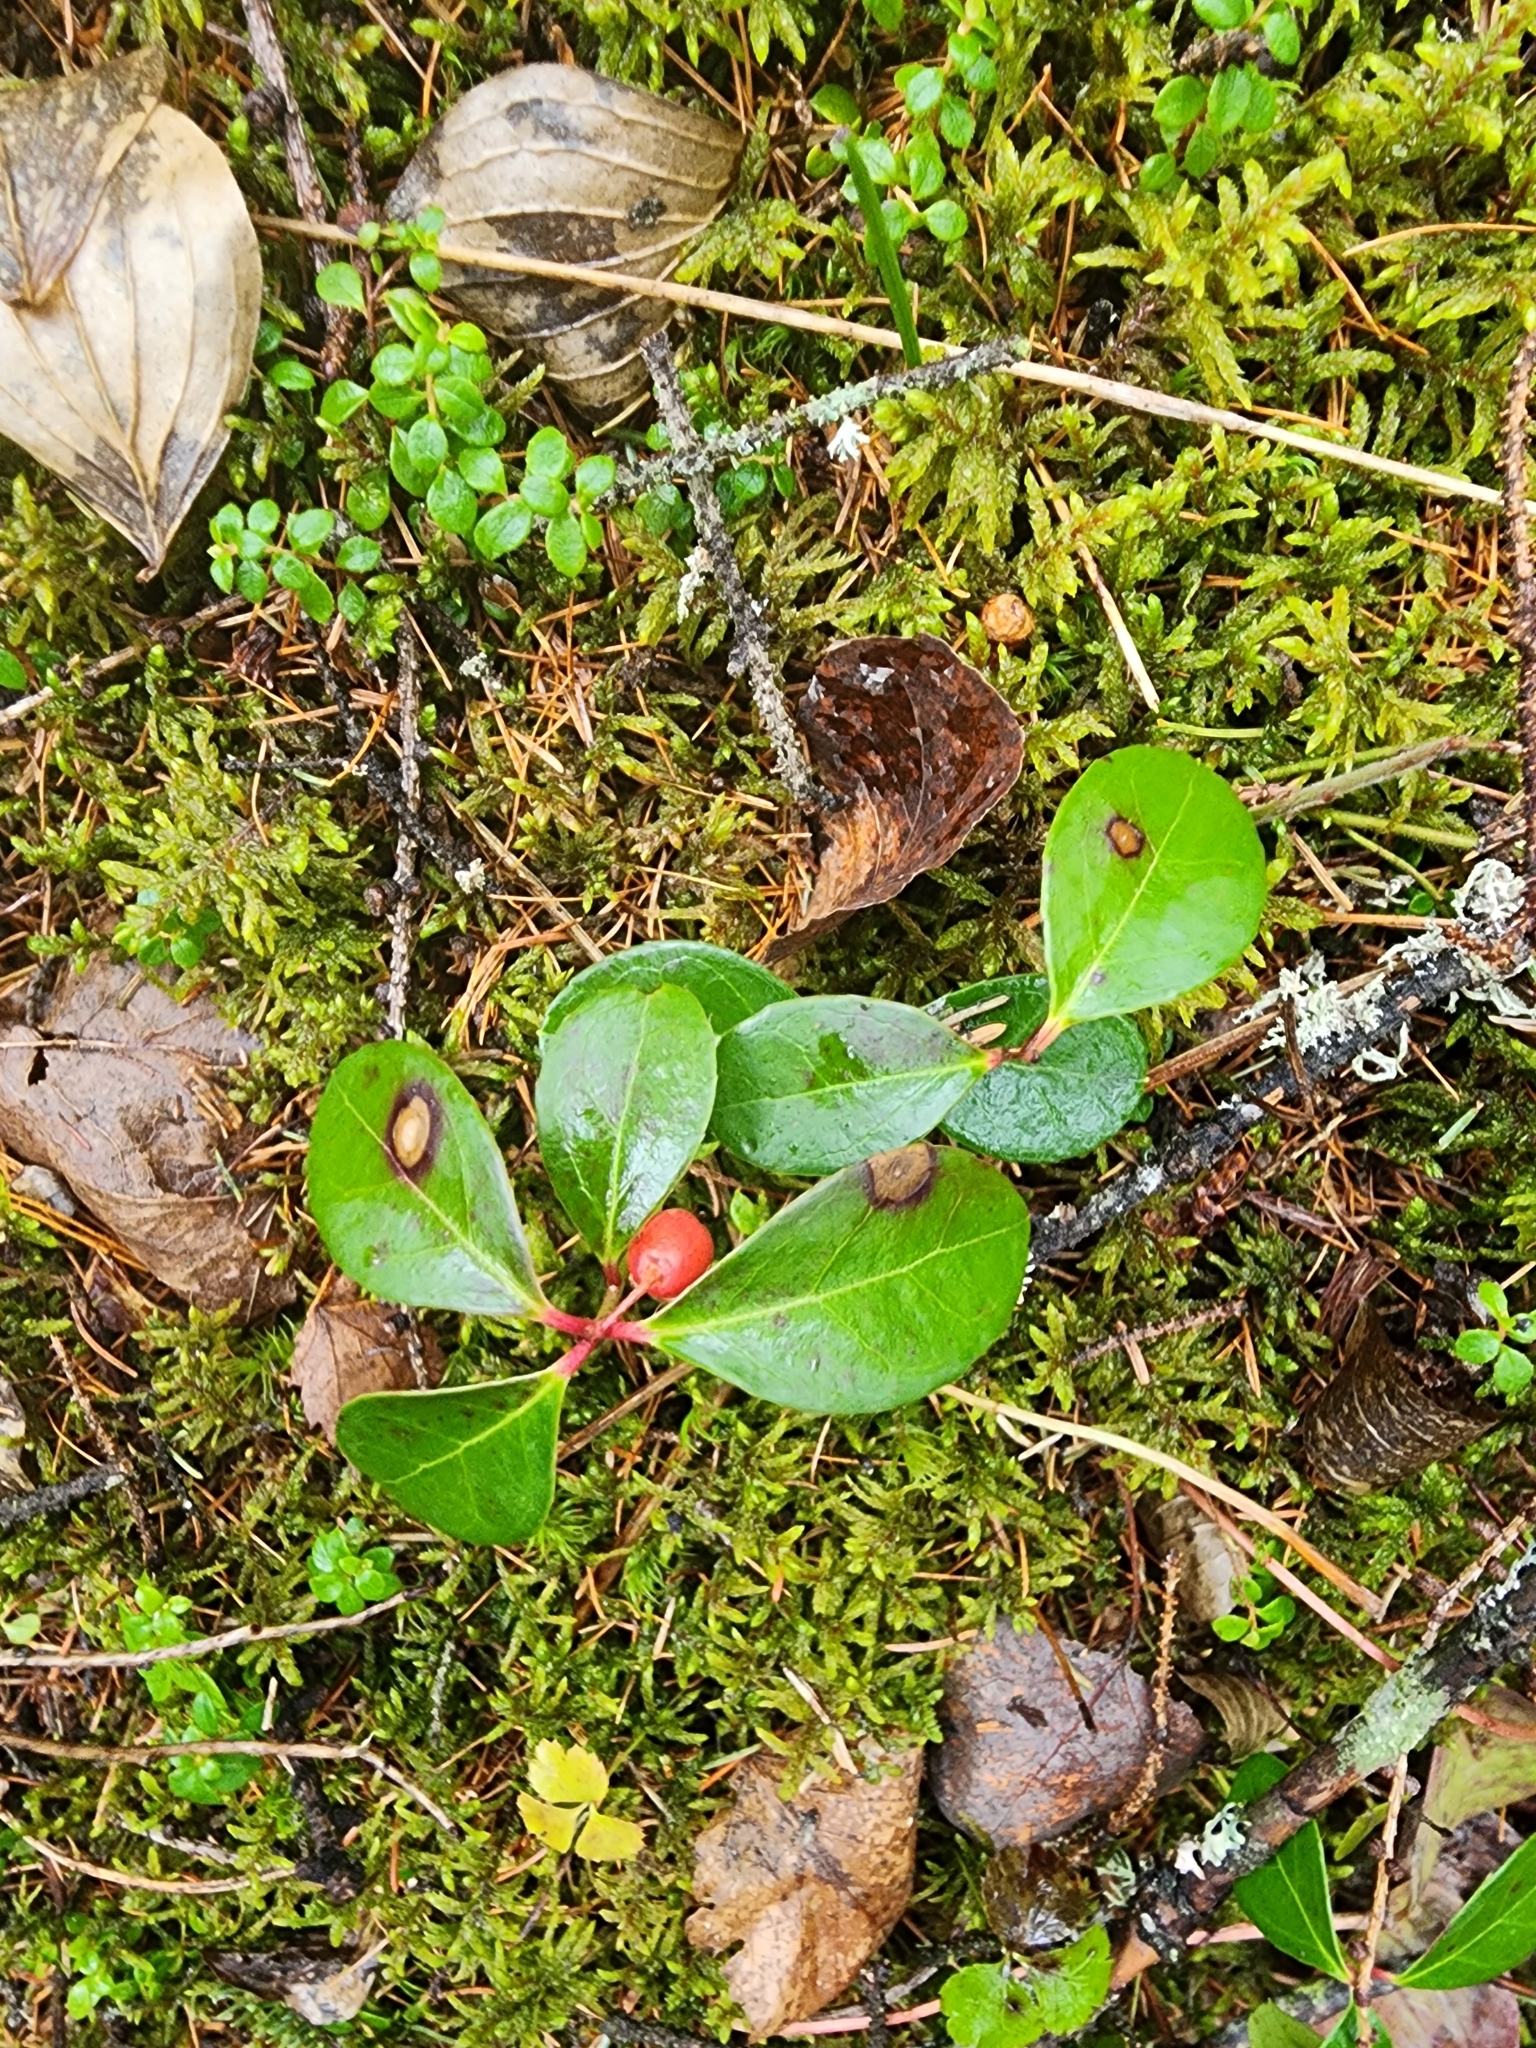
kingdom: Plantae
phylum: Tracheophyta
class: Magnoliopsida
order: Ericales
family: Ericaceae
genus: Gaultheria
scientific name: Gaultheria procumbens
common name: Checkerberry
